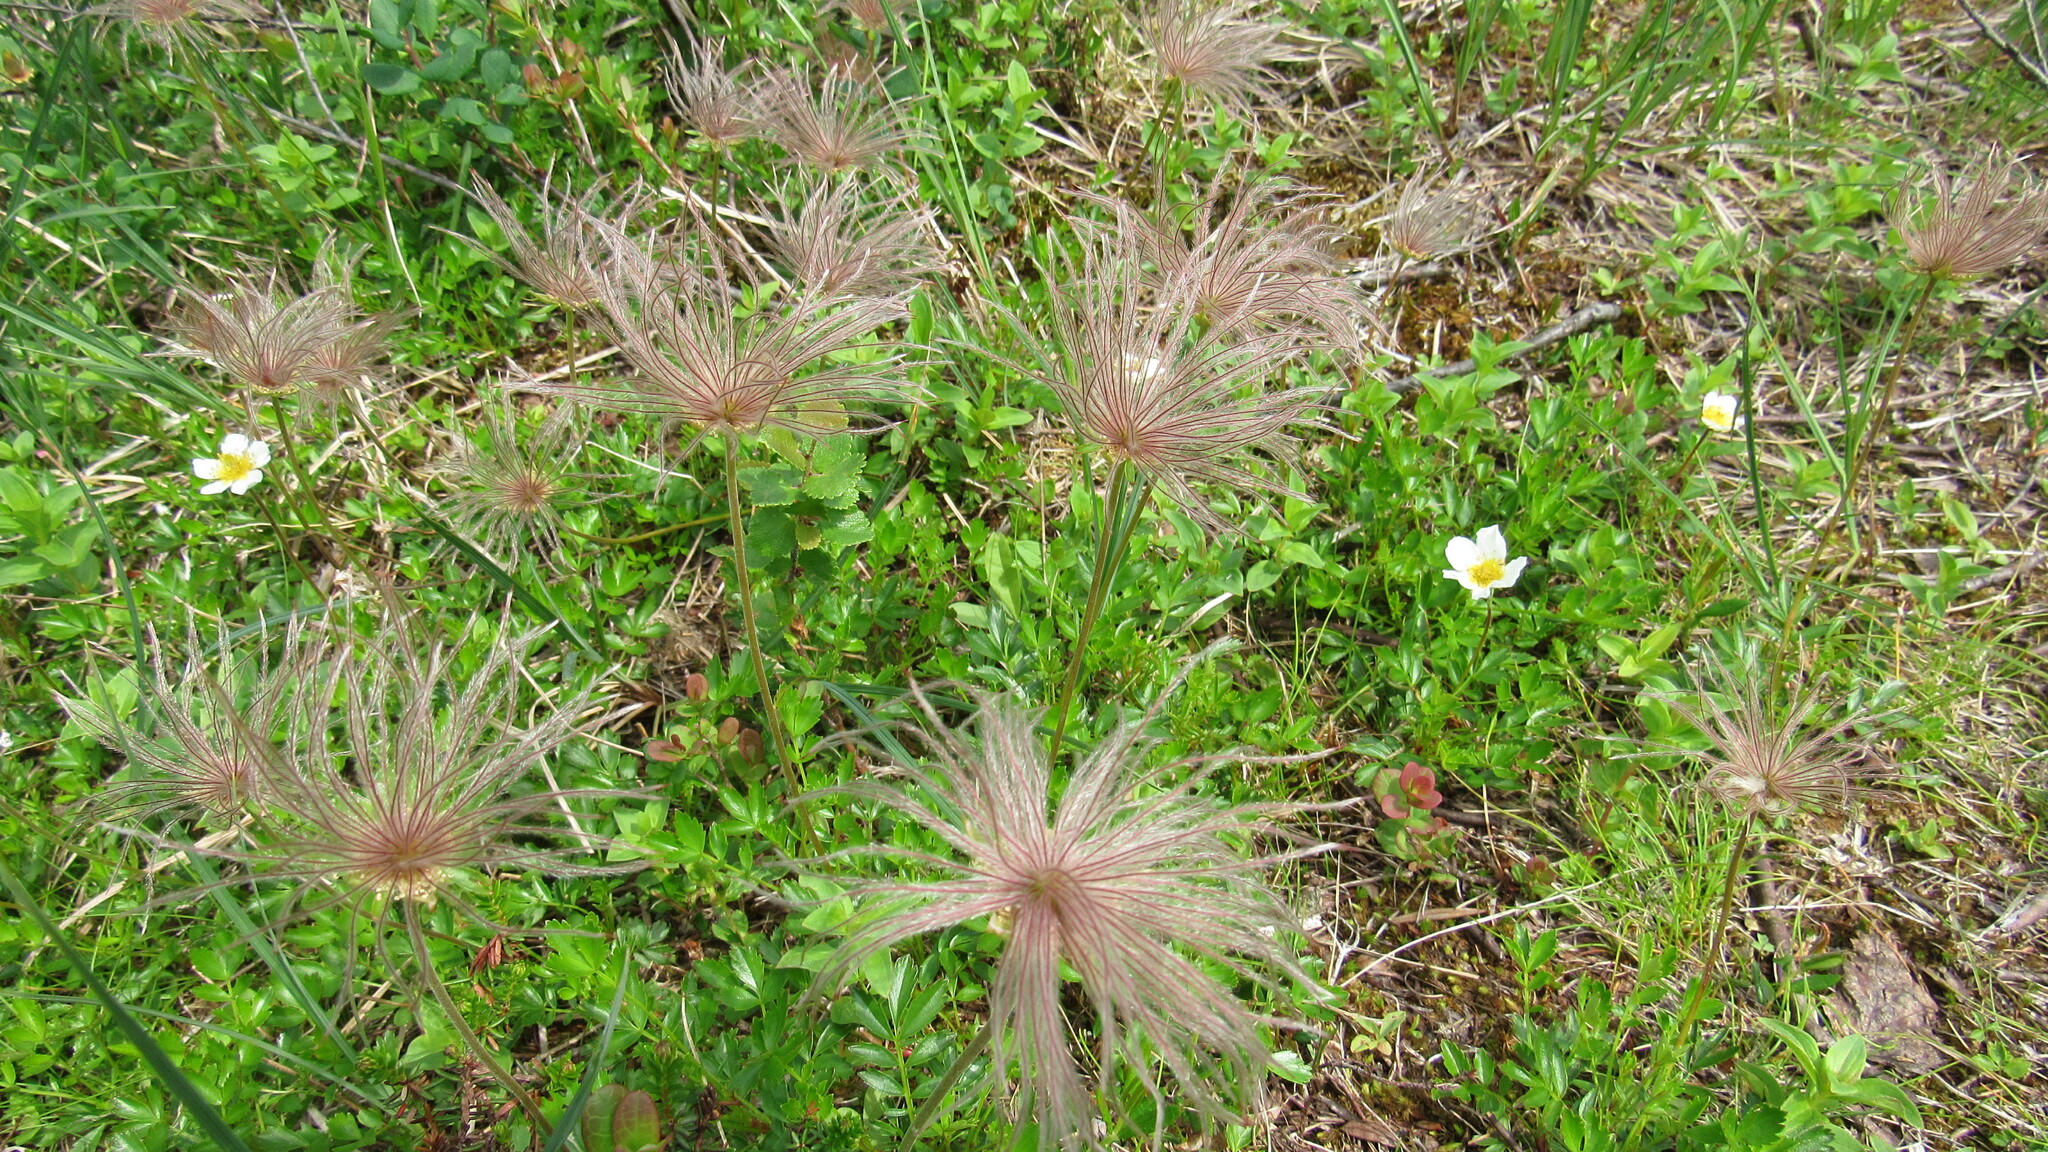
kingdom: Plantae
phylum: Tracheophyta
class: Magnoliopsida
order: Rosales
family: Rosaceae
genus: Geum
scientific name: Geum pentapetalum
